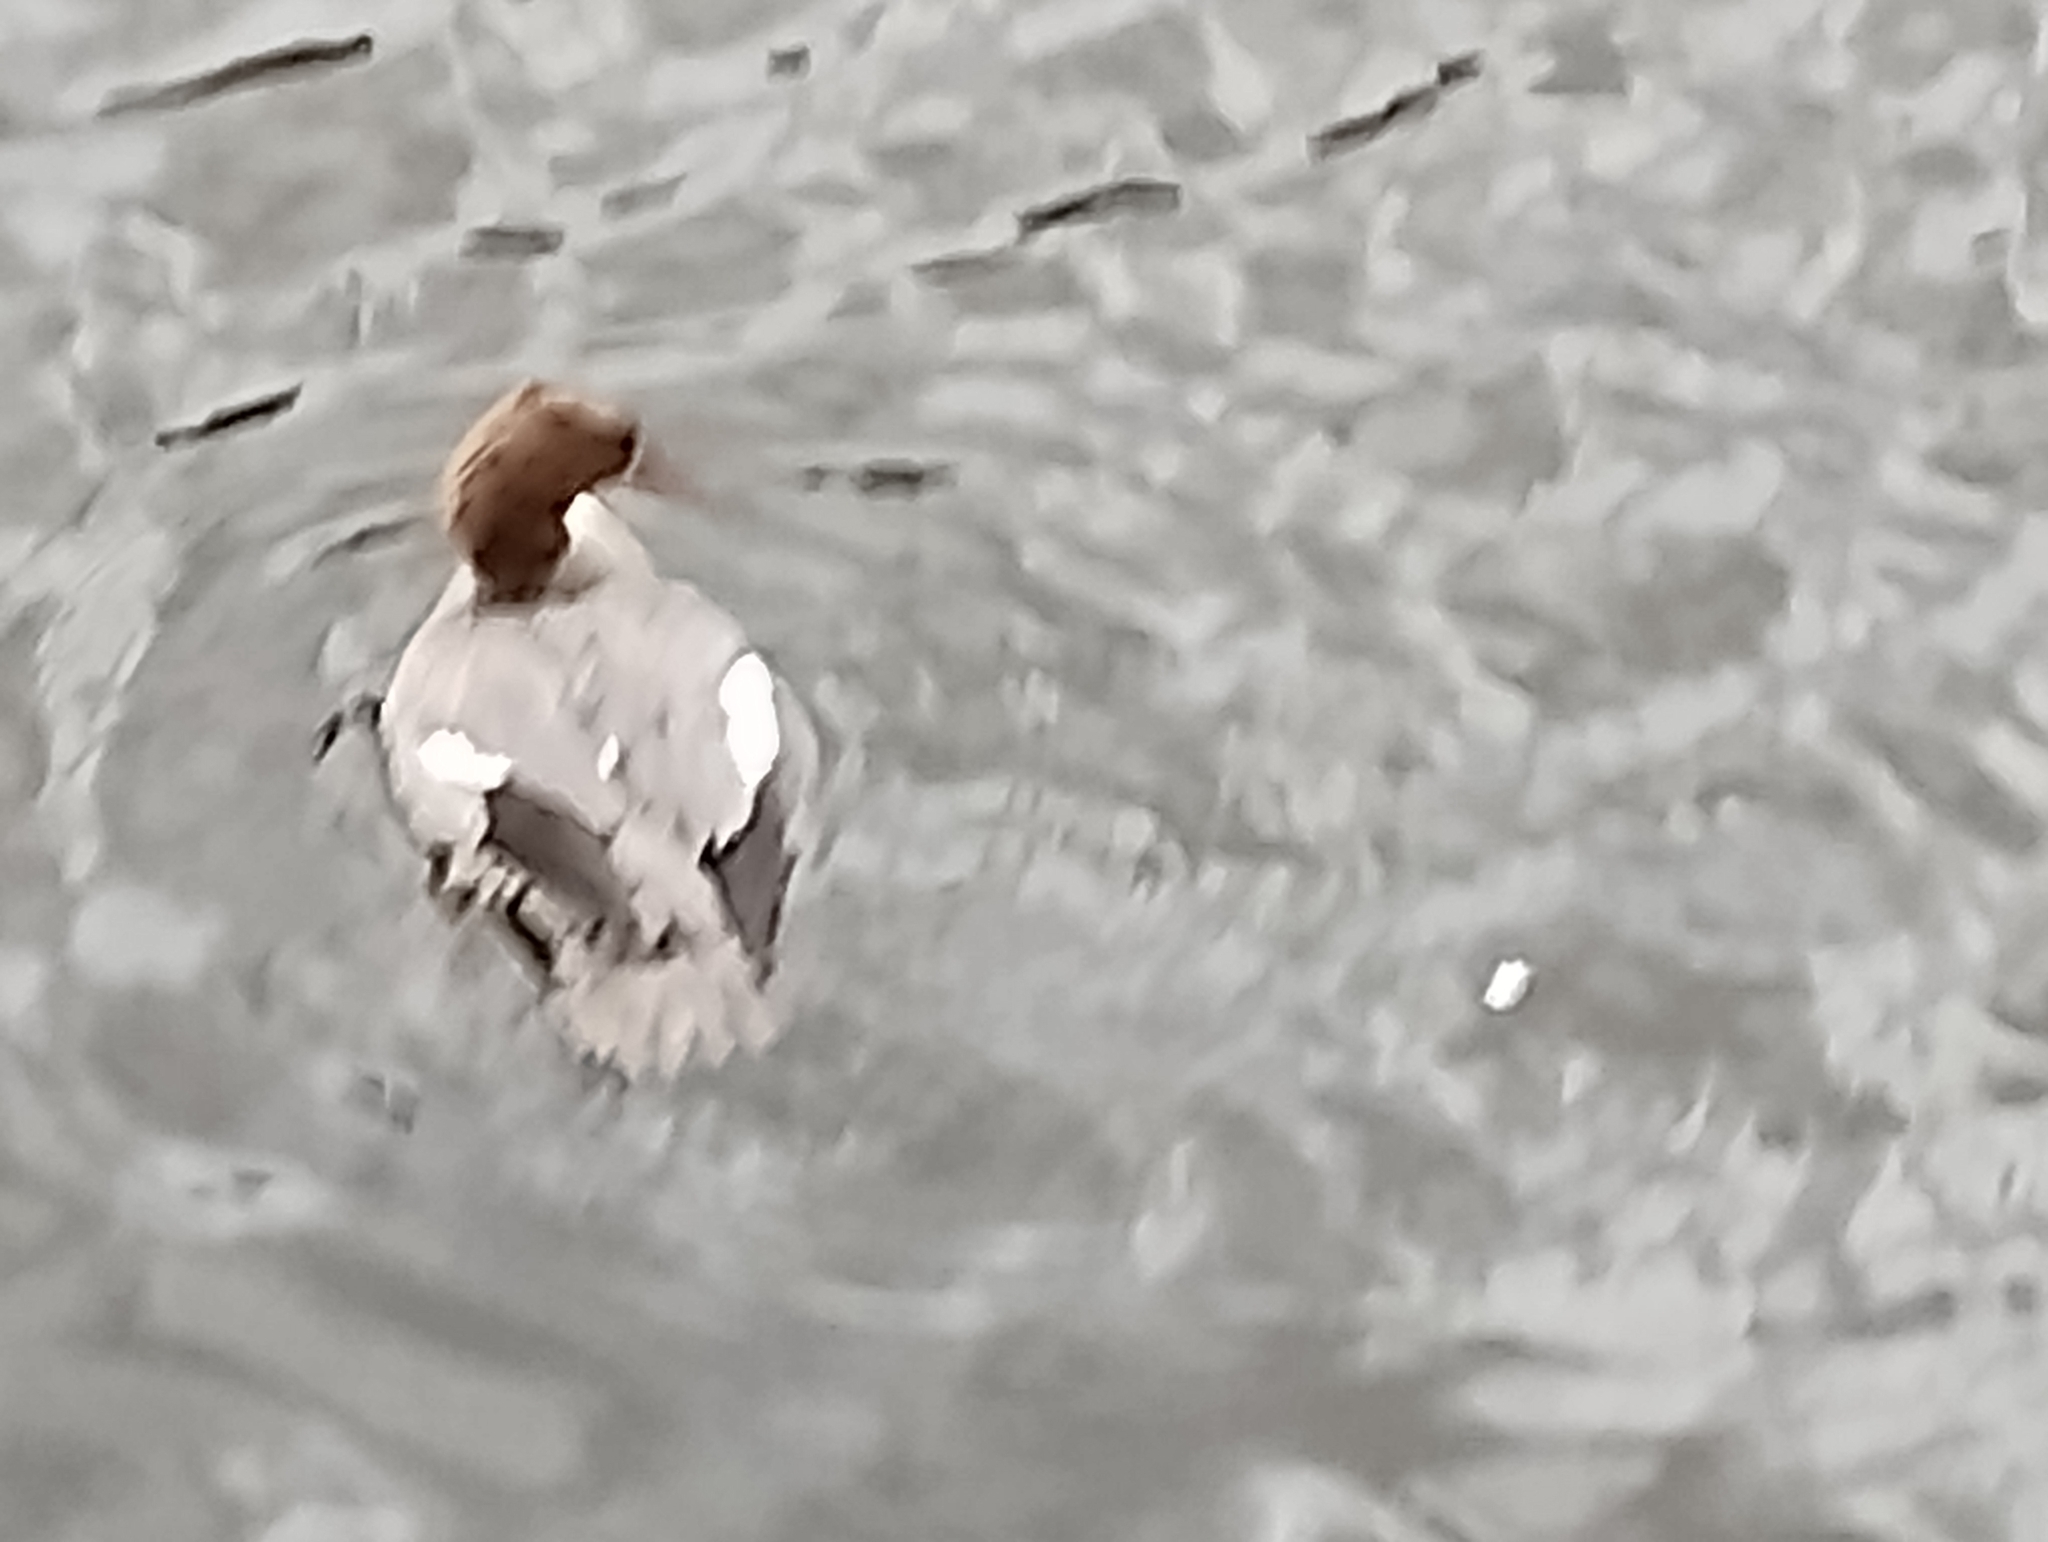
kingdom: Animalia
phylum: Chordata
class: Aves
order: Anseriformes
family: Anatidae
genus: Mergus
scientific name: Mergus merganser
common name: Common merganser
